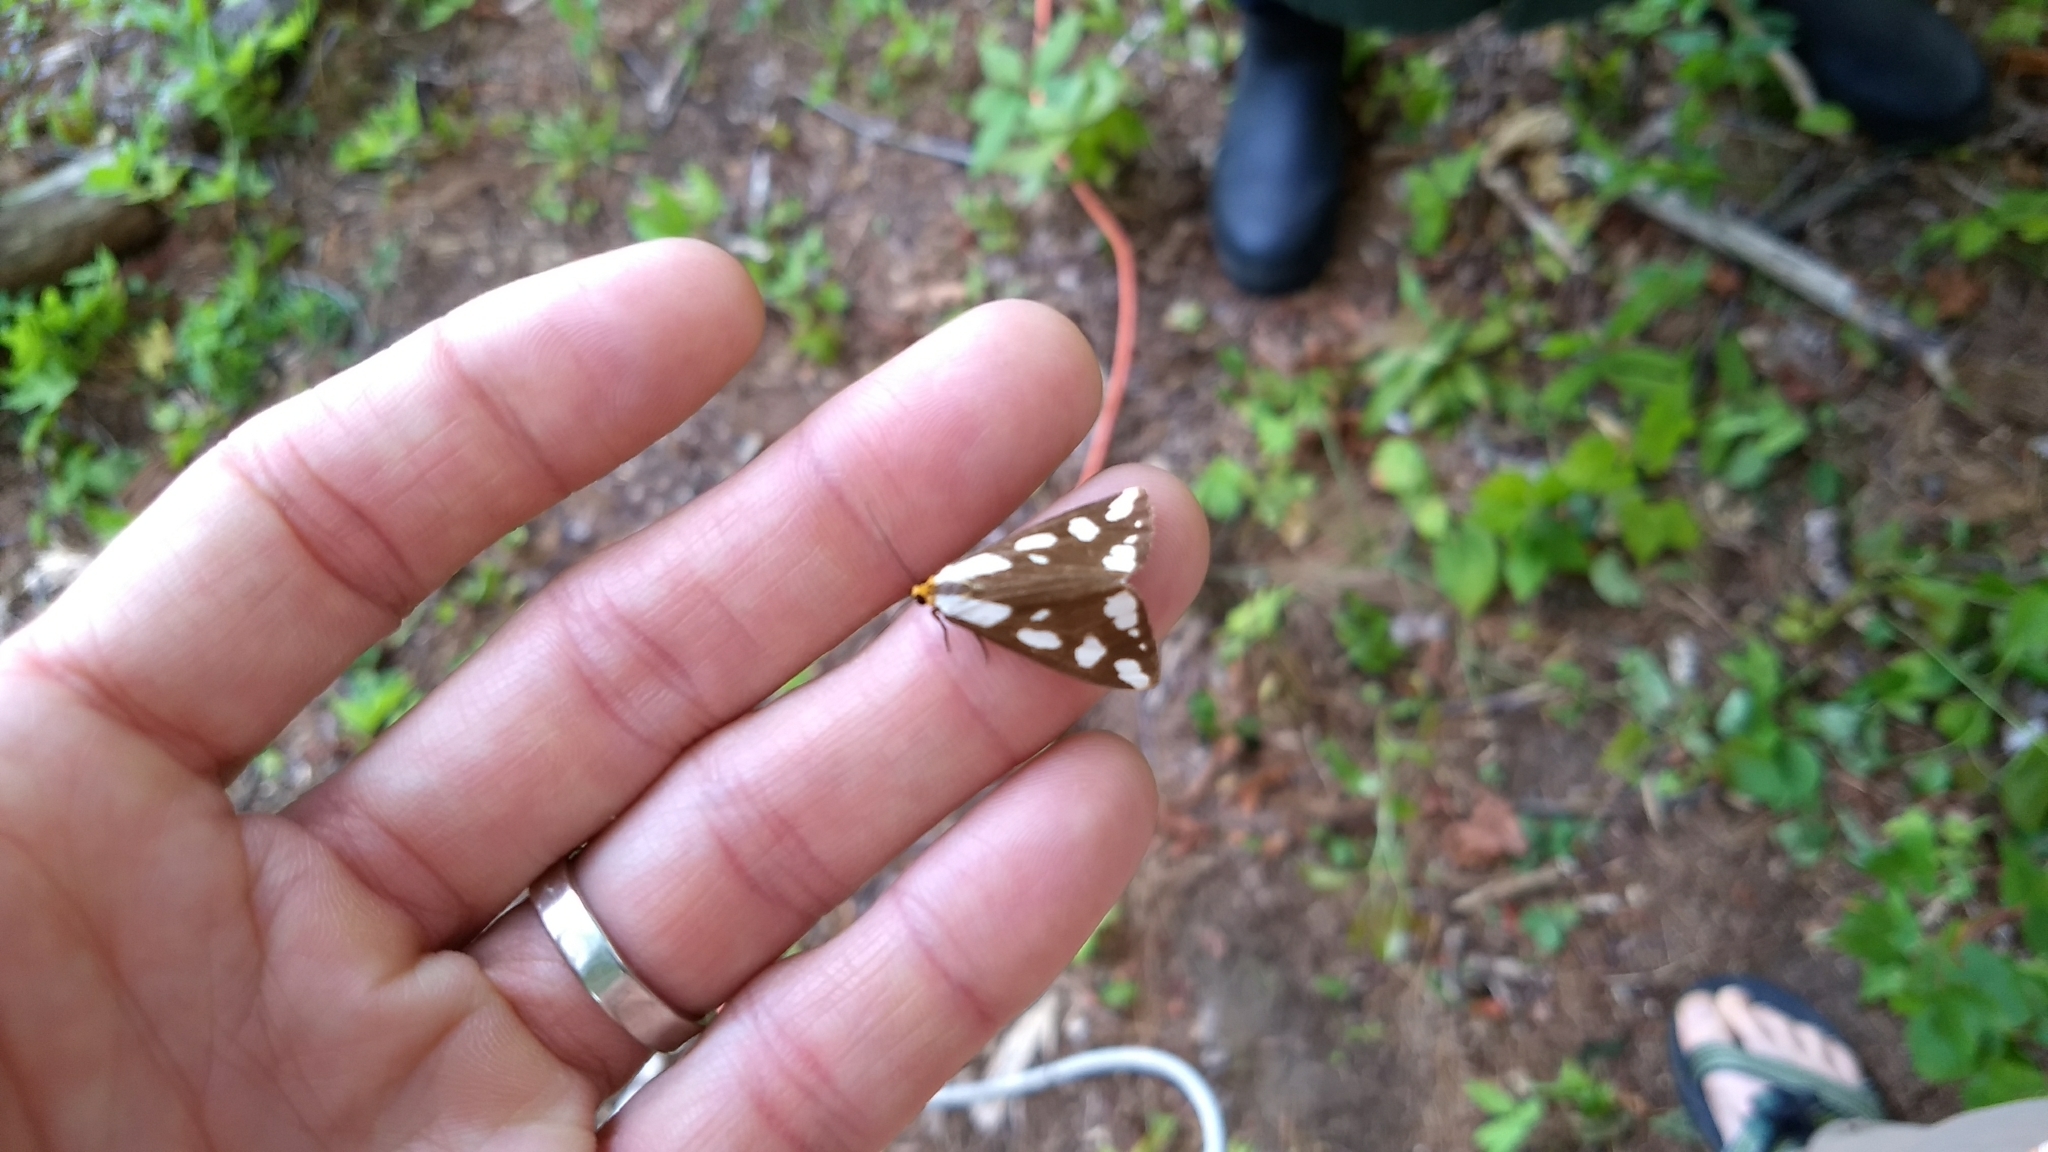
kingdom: Animalia
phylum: Arthropoda
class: Insecta
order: Lepidoptera
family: Erebidae
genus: Haploa
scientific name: Haploa confusa
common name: Confused haploa moth
